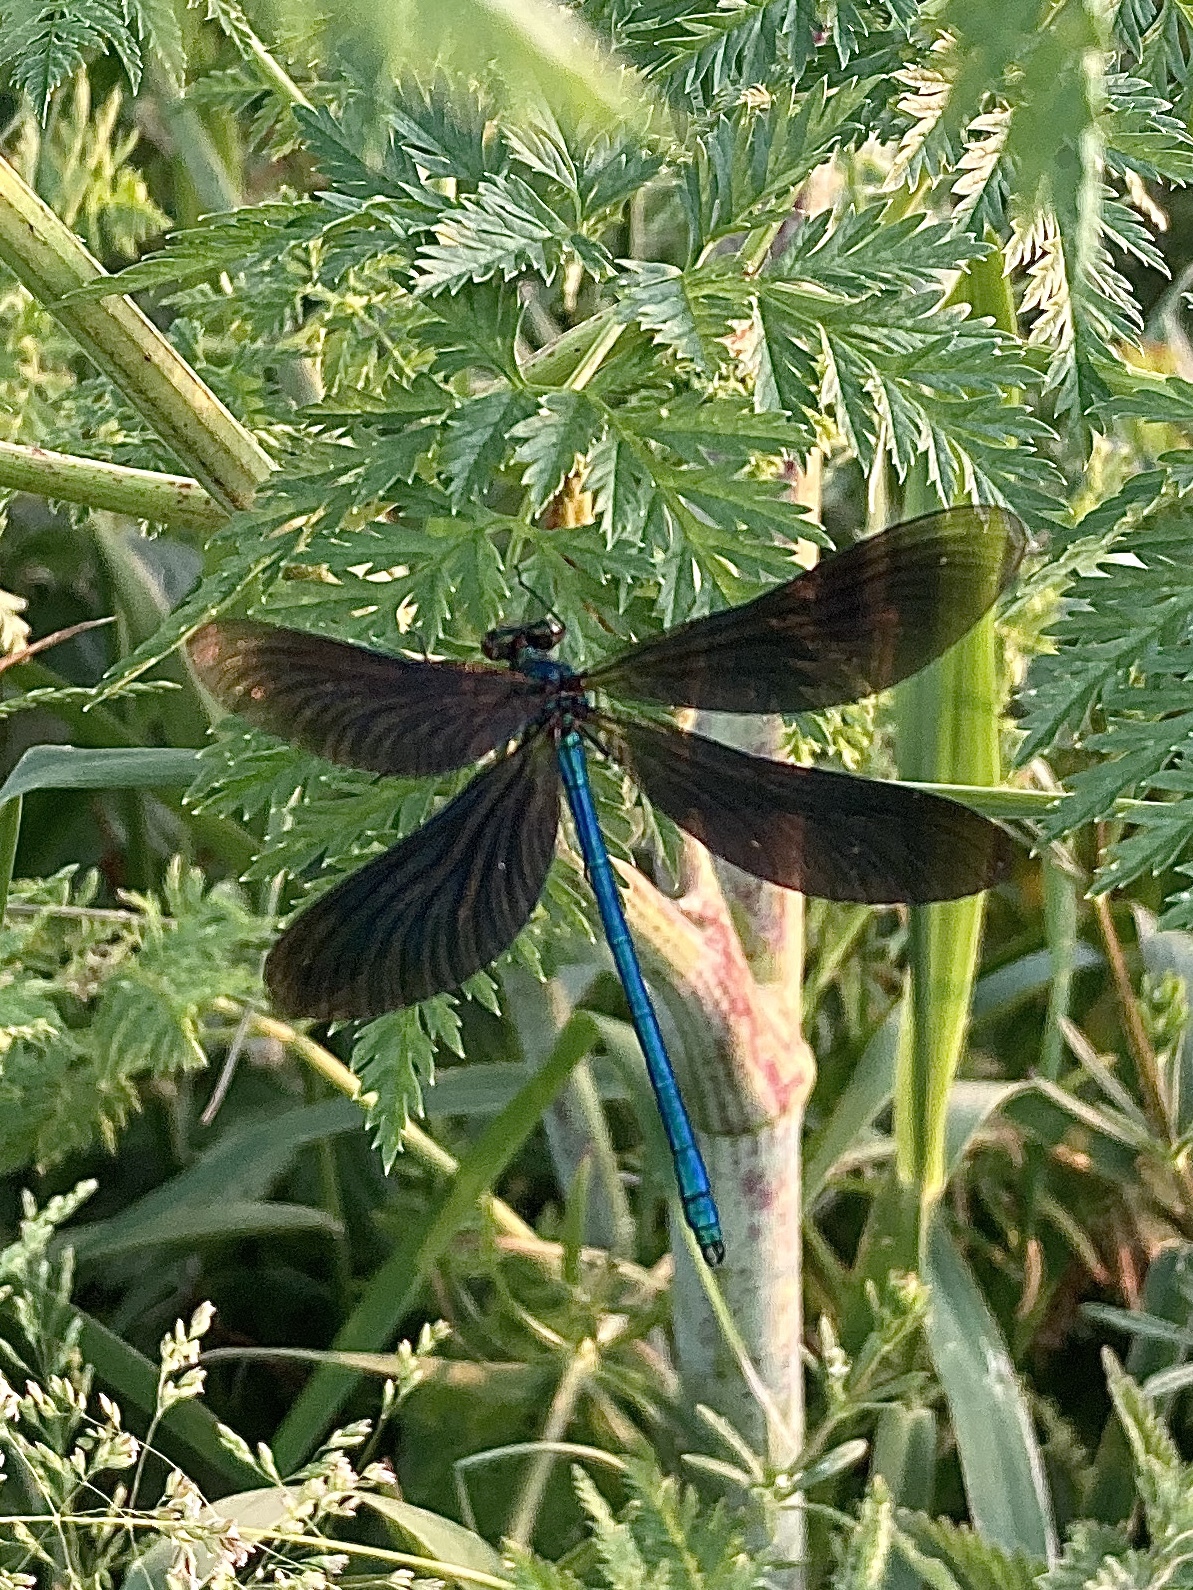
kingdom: Animalia
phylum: Arthropoda
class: Insecta
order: Odonata
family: Calopterygidae
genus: Calopteryx
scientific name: Calopteryx virgo
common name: Beautiful demoiselle
